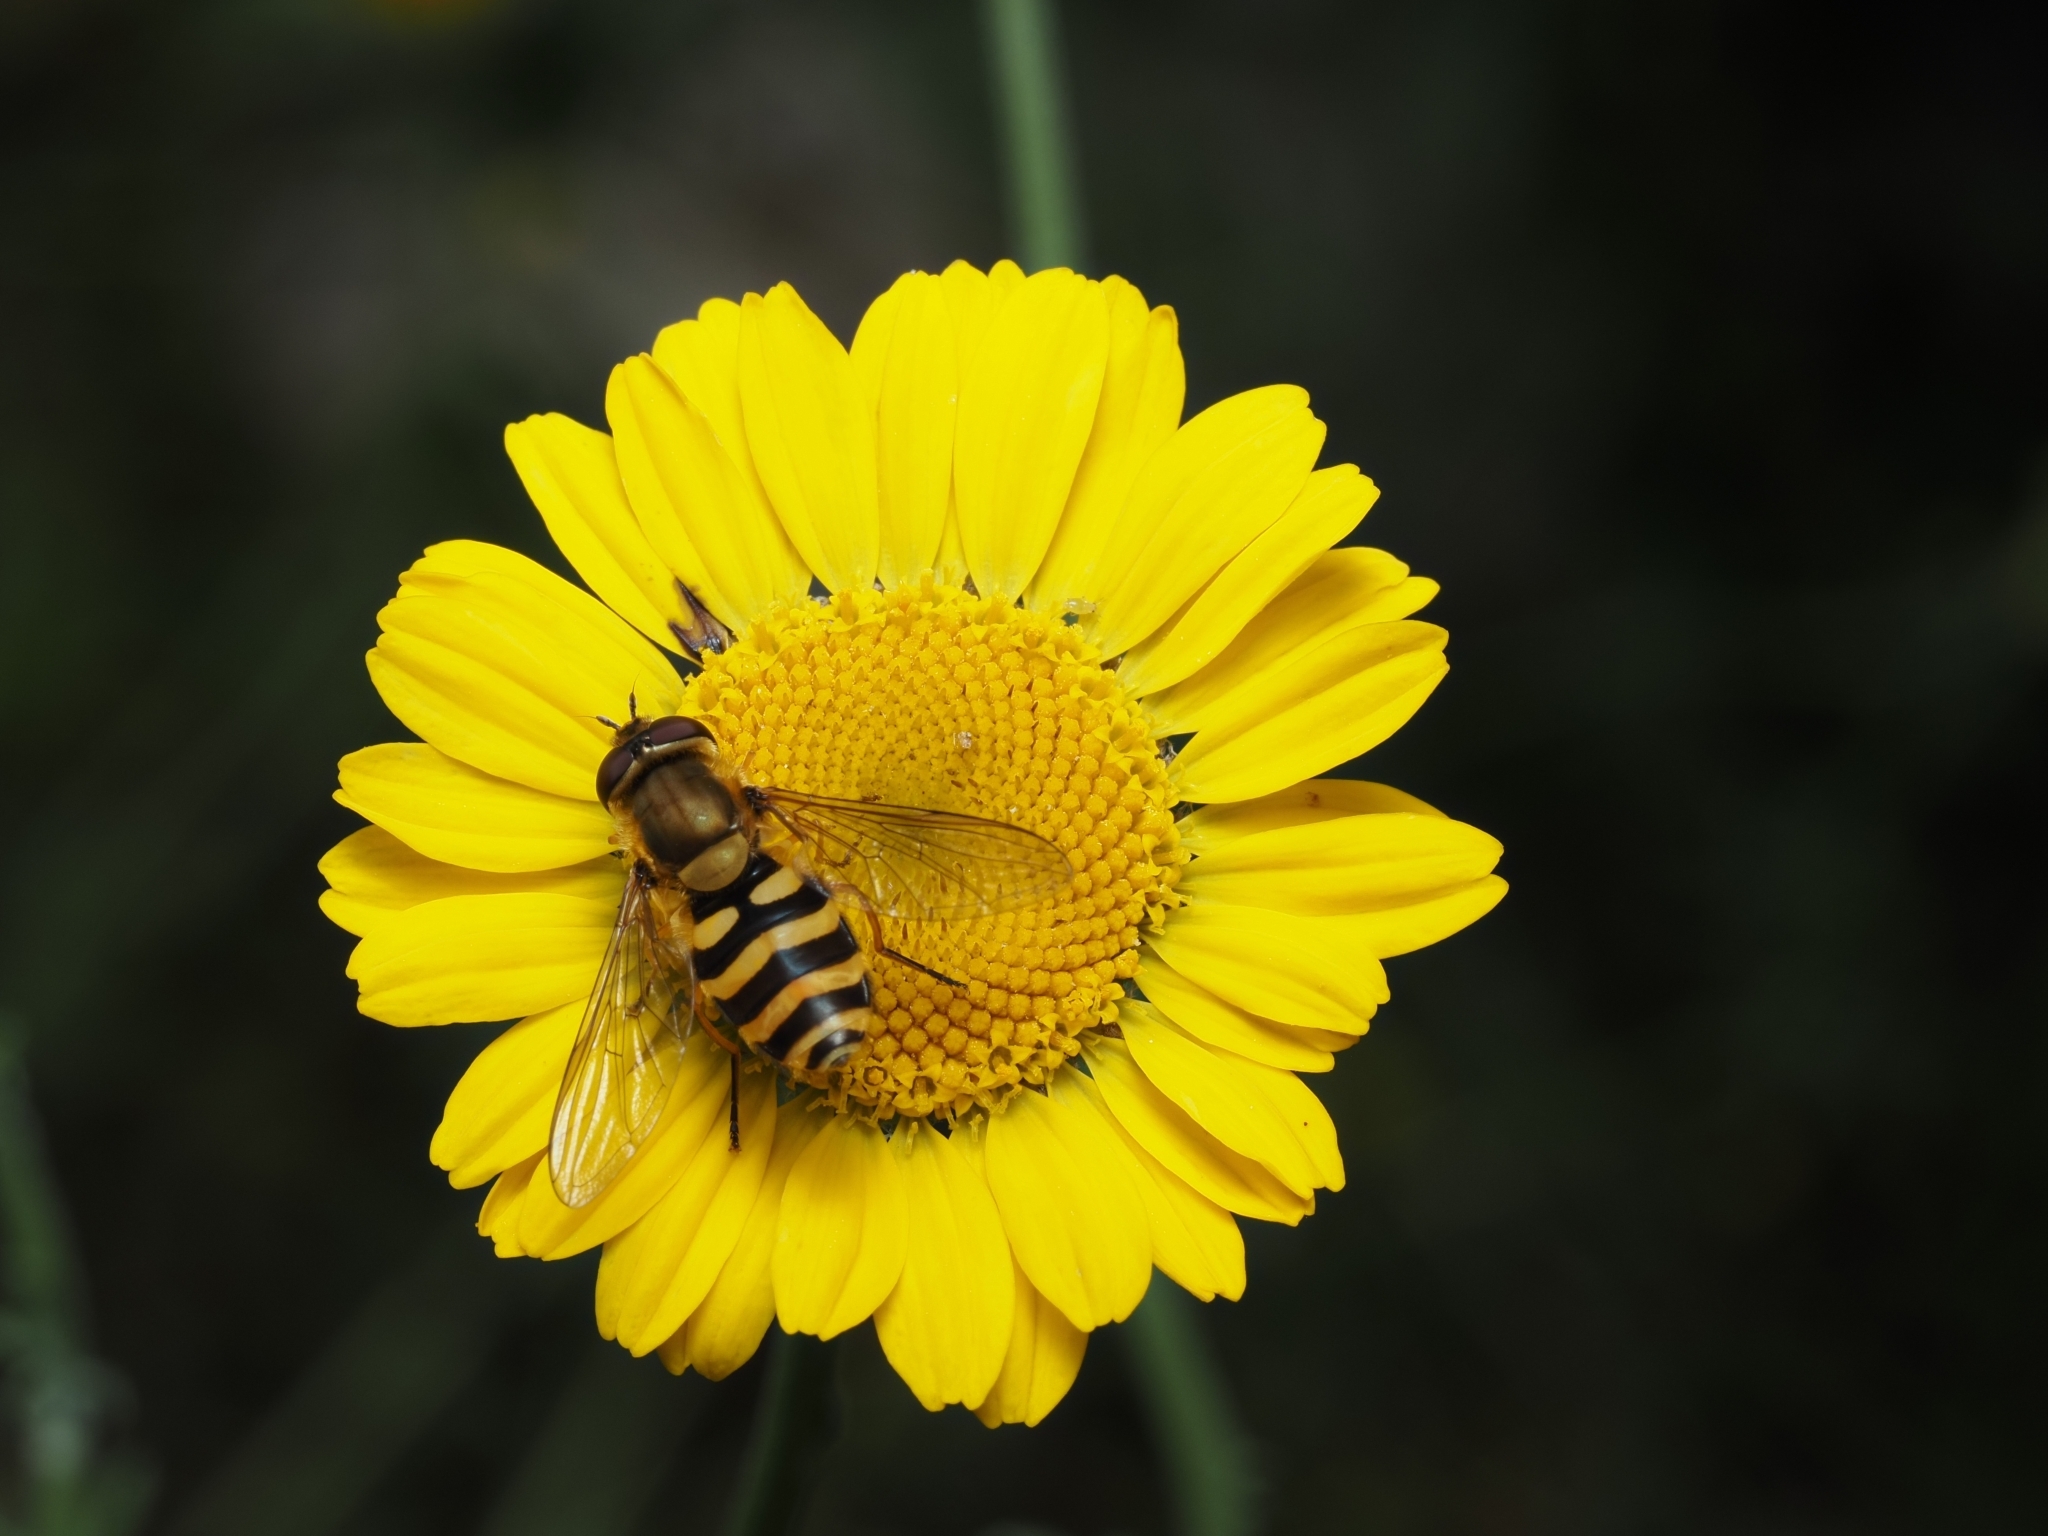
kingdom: Animalia
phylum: Arthropoda
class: Insecta
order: Diptera
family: Syrphidae
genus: Syrphus
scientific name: Syrphus
